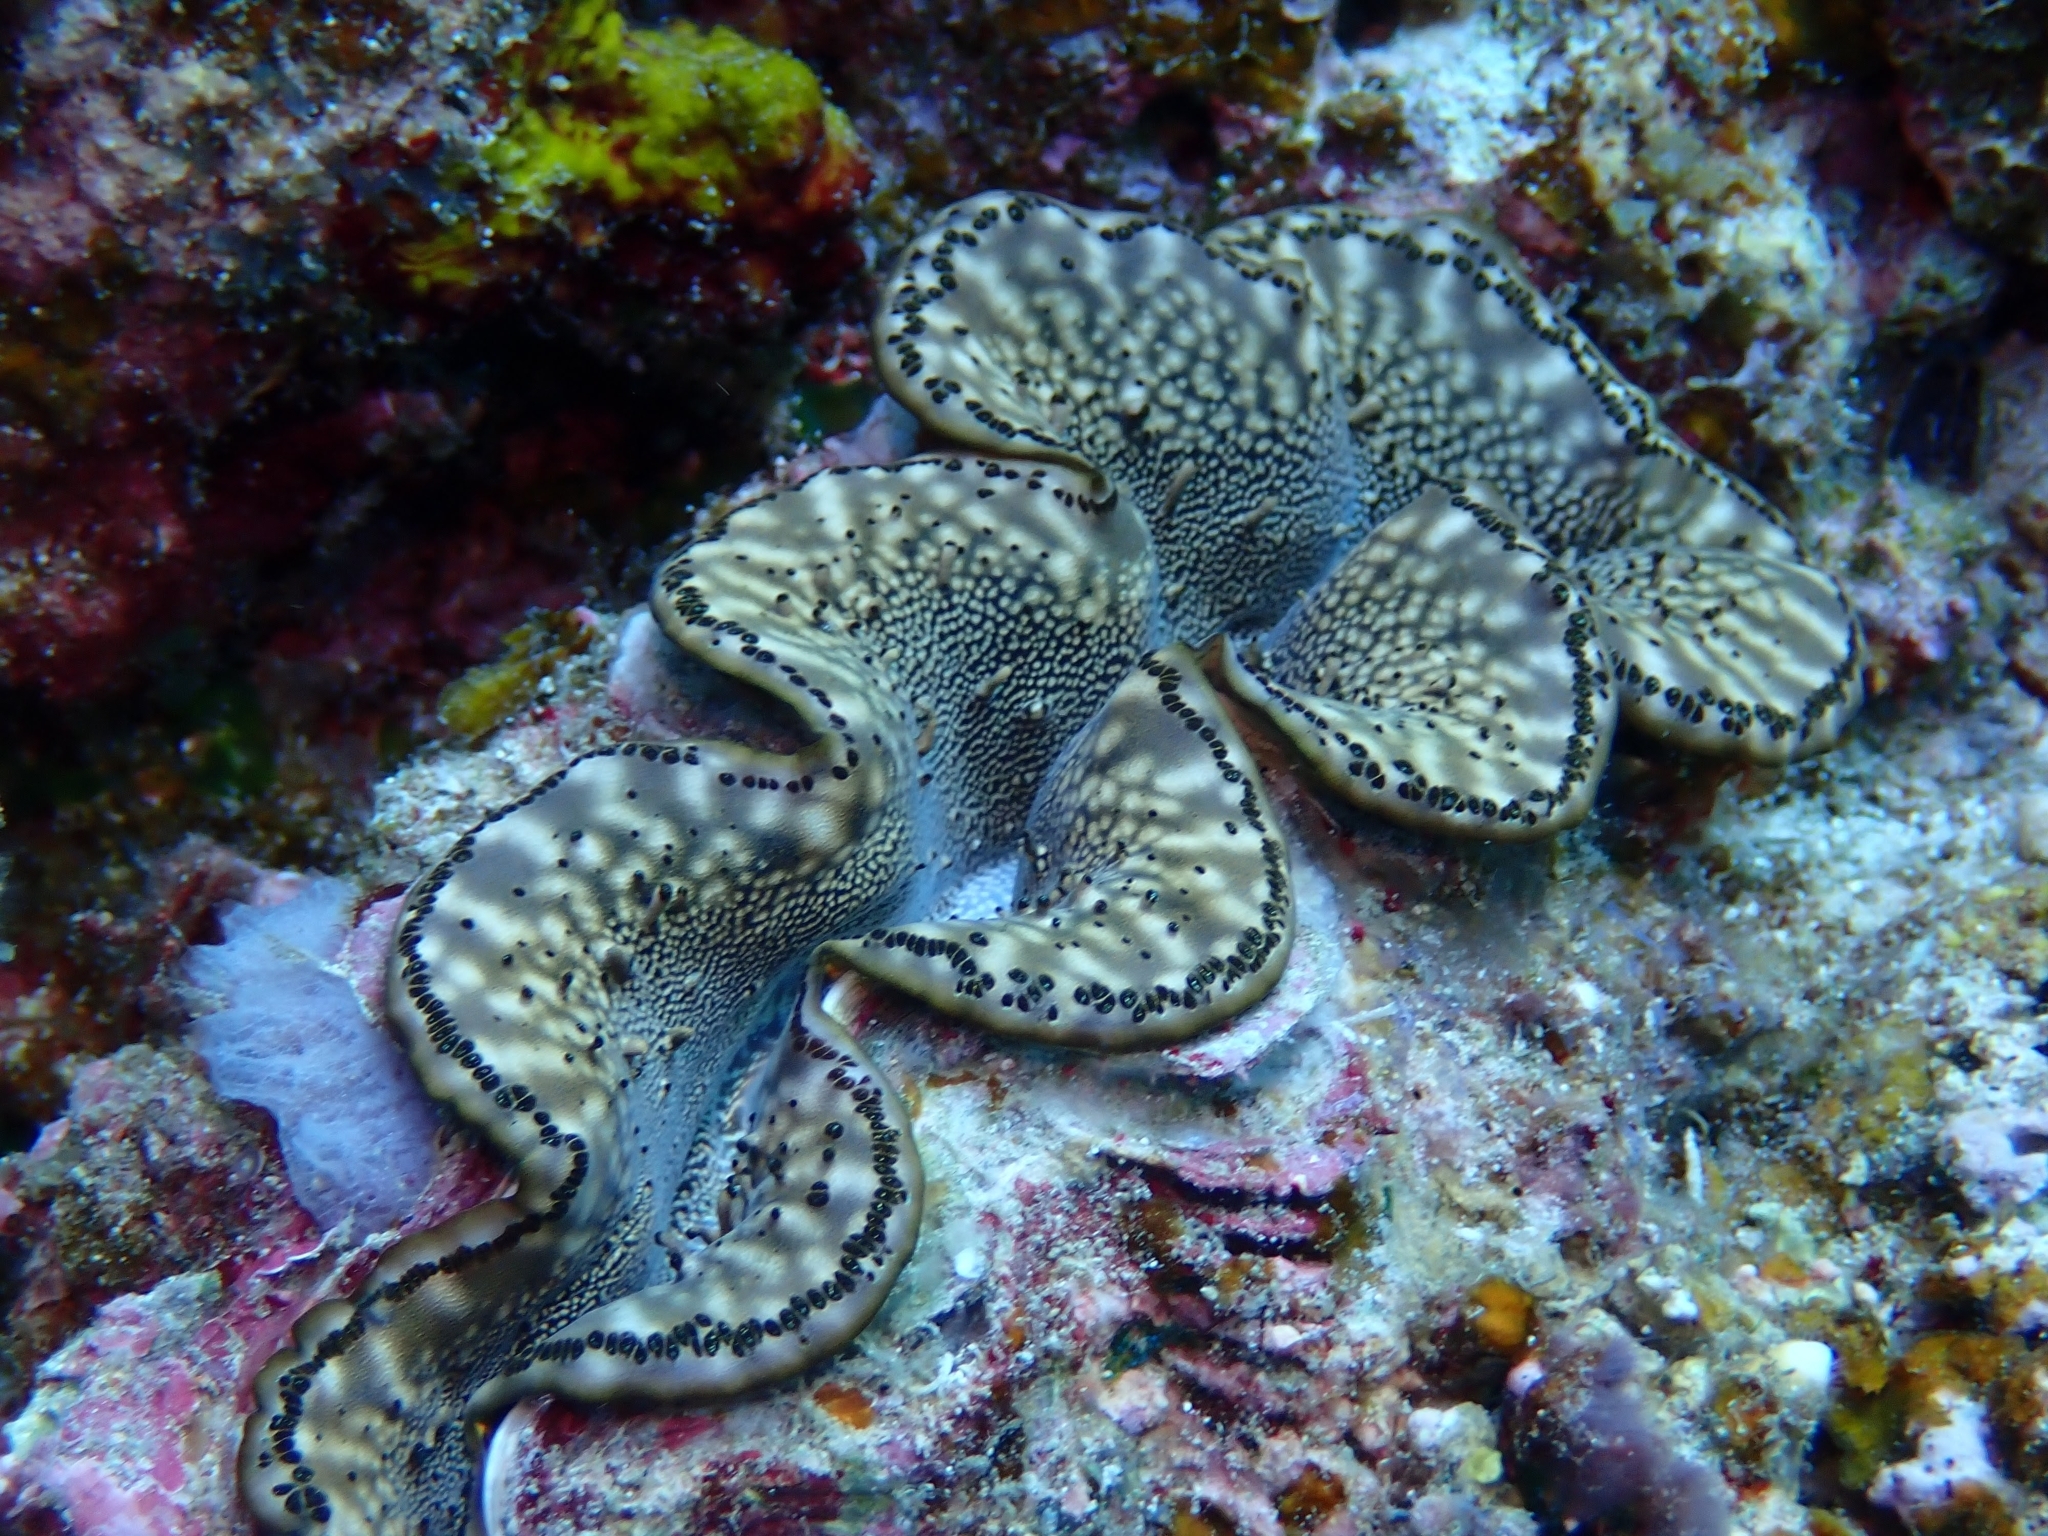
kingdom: Animalia
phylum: Mollusca
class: Bivalvia
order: Cardiida
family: Cardiidae
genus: Tridacna
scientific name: Tridacna maxima
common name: Small giant clam
